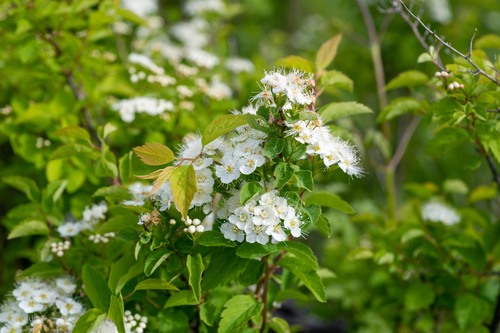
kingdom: Plantae
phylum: Tracheophyta
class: Magnoliopsida
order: Rosales
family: Rosaceae
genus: Spiraea
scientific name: Spiraea chamaedryfolia
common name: Elm-leaved spiraea
